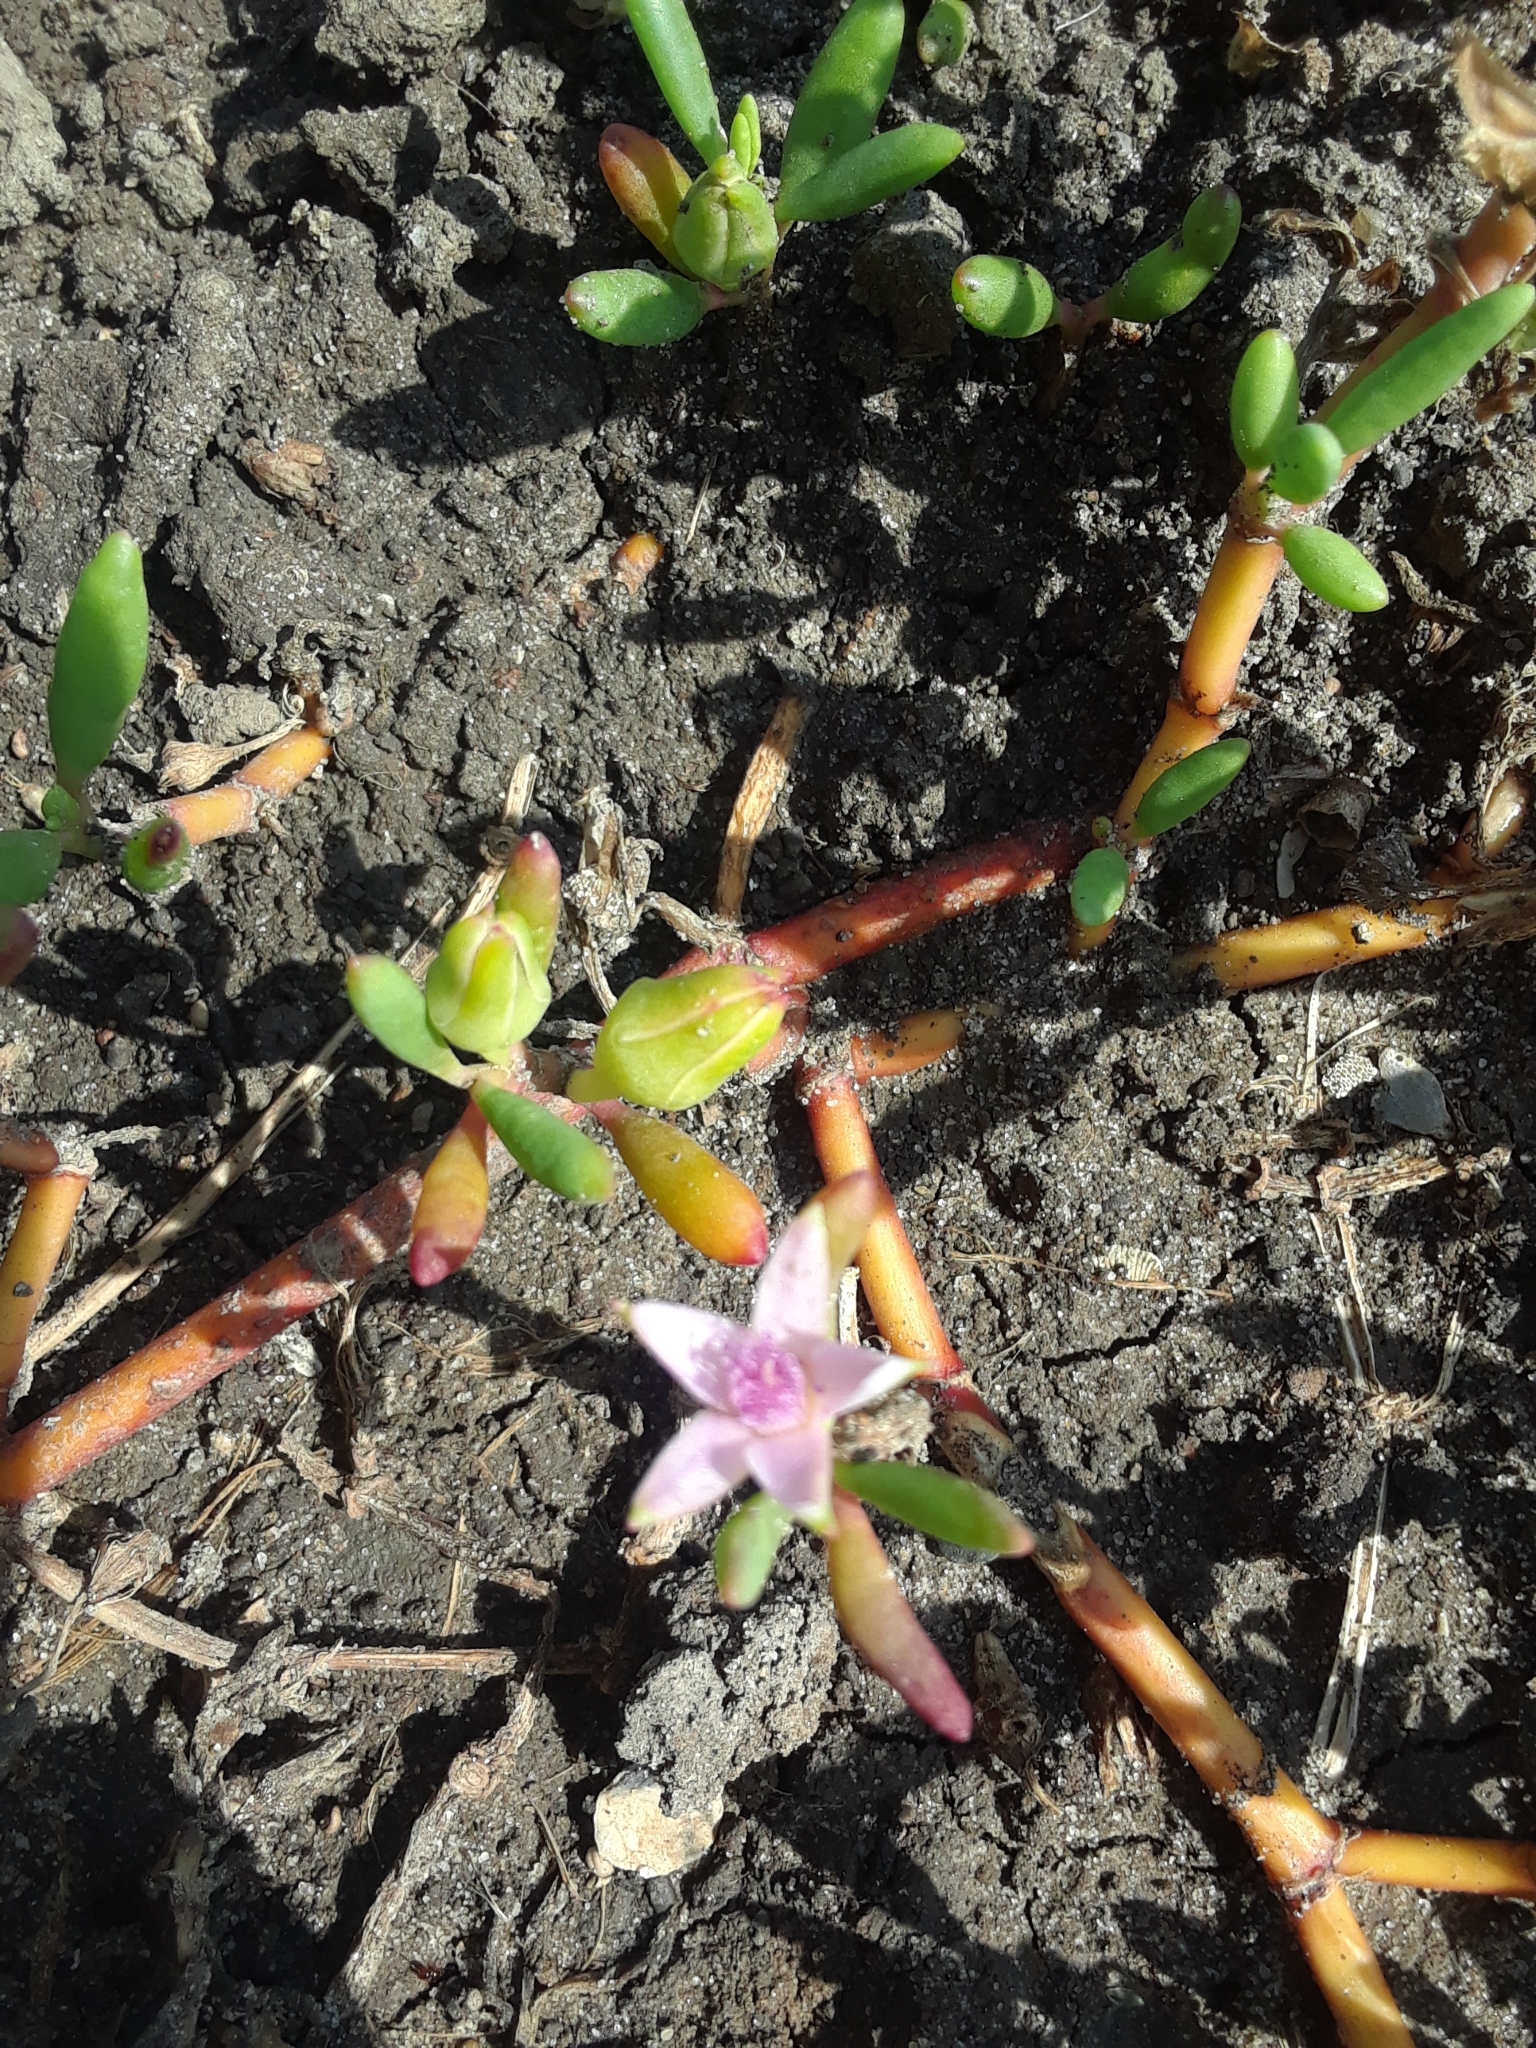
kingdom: Plantae
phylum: Tracheophyta
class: Magnoliopsida
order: Caryophyllales
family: Aizoaceae
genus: Sesuvium
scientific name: Sesuvium portulacastrum
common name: Sea-purslane
